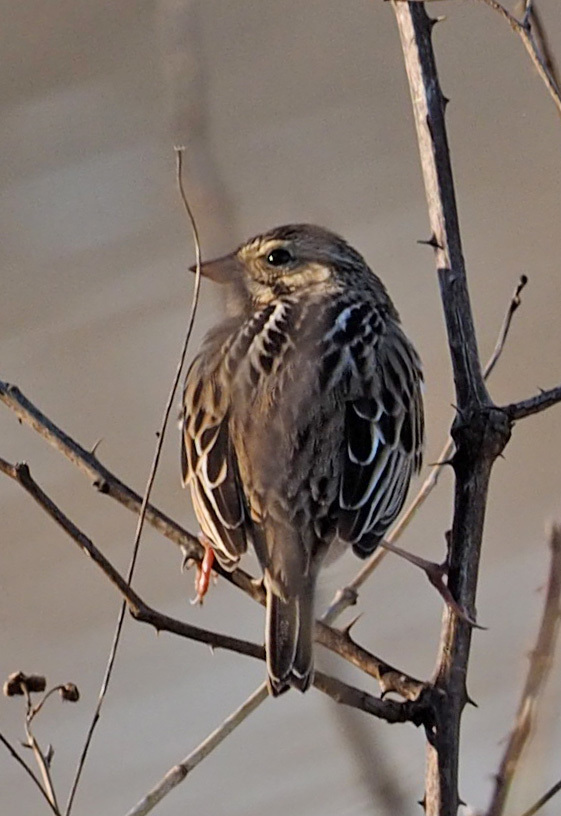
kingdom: Animalia
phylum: Chordata
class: Aves
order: Passeriformes
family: Passerellidae
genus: Passerculus
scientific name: Passerculus sandwichensis
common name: Savannah sparrow
